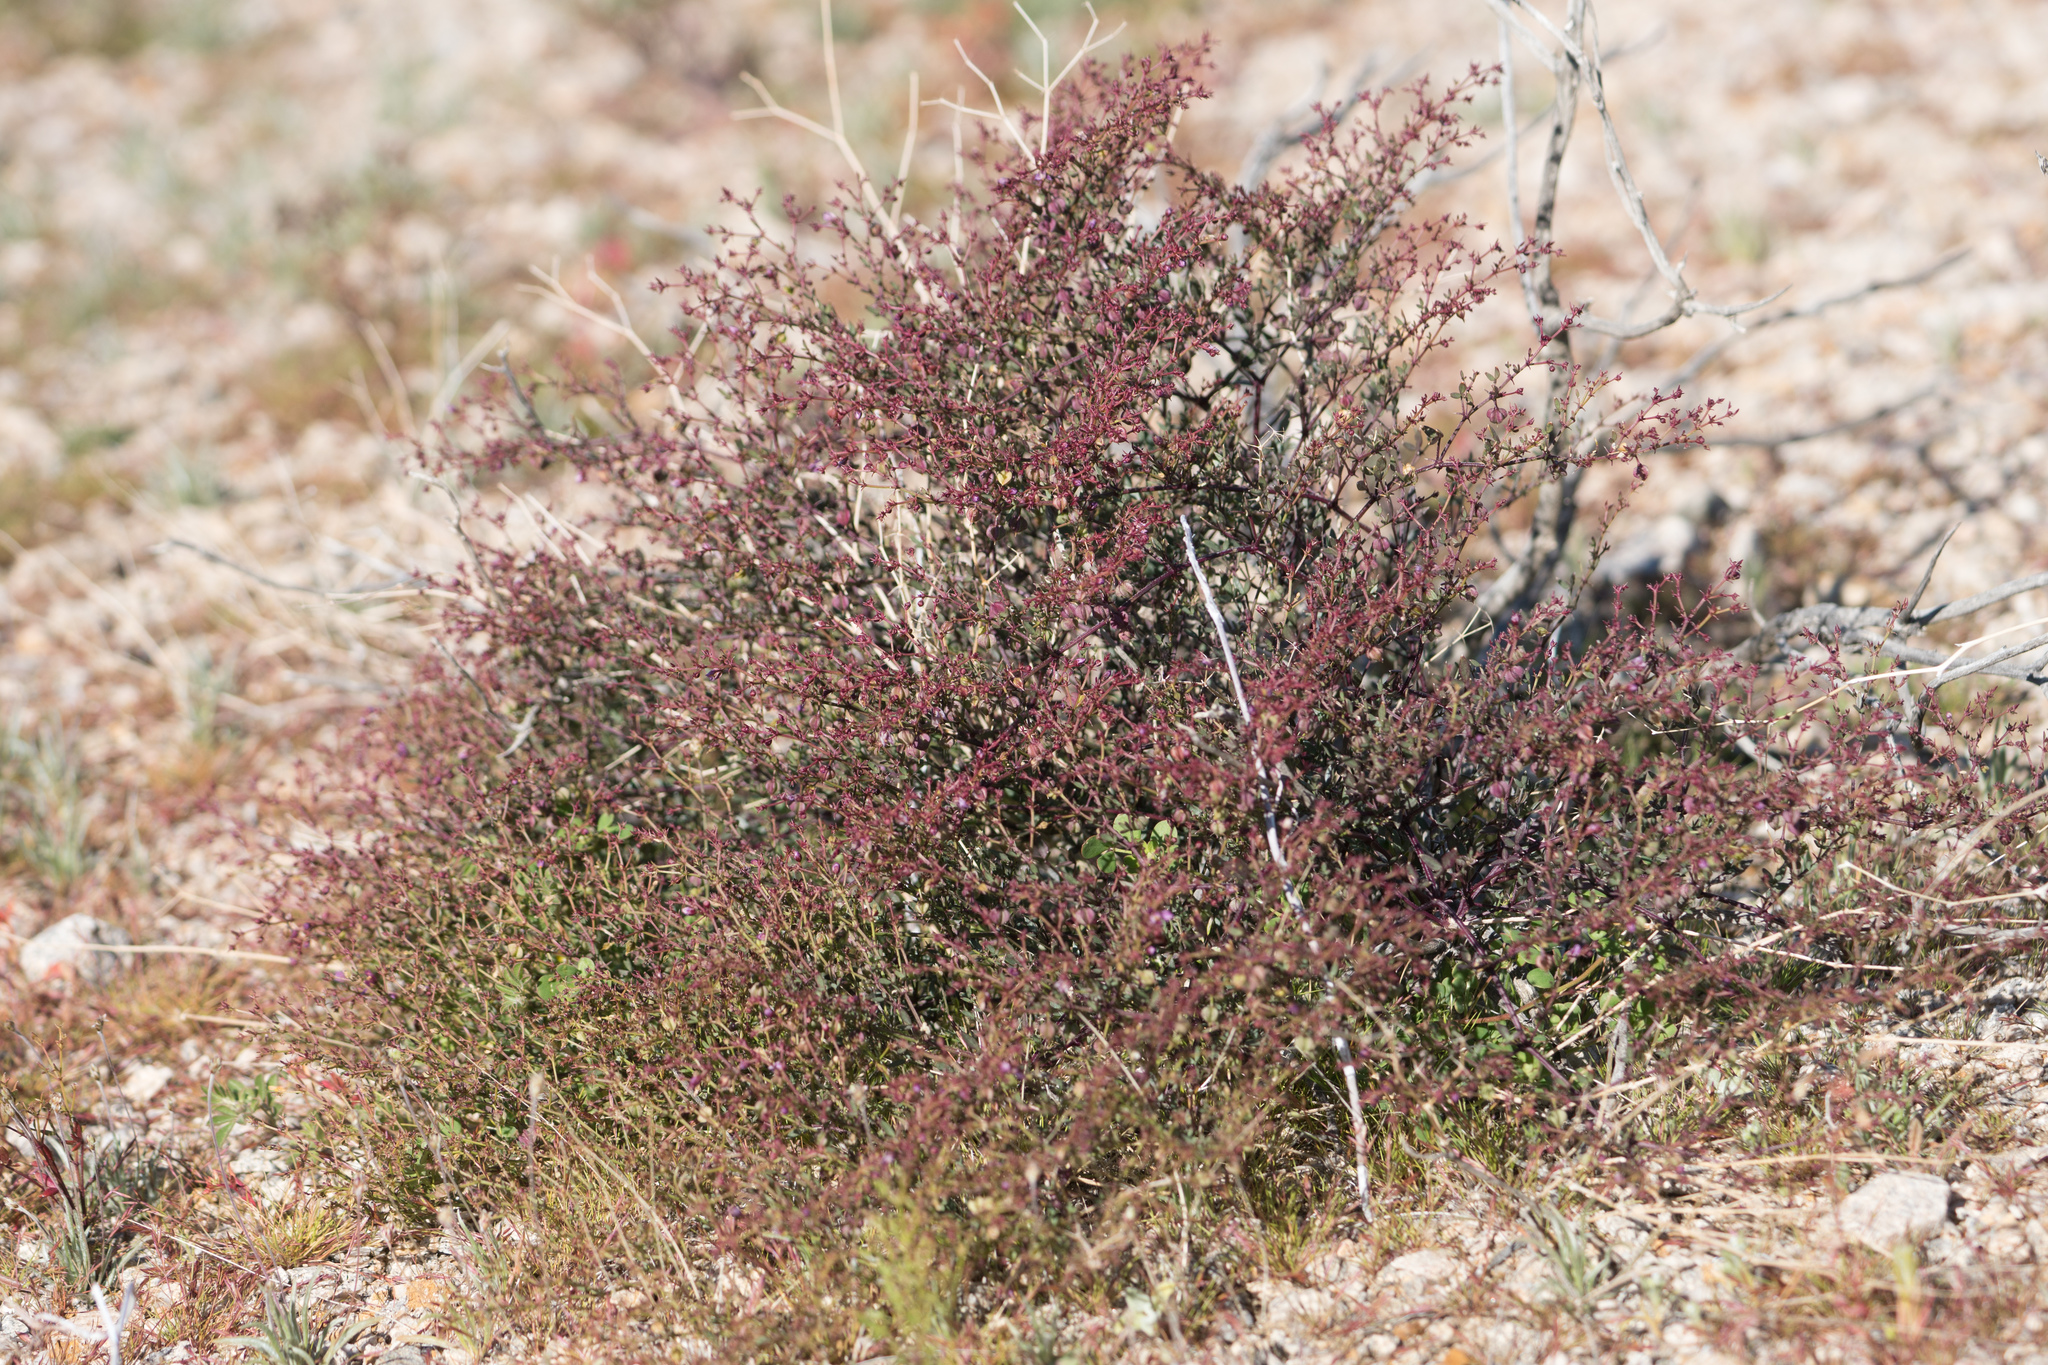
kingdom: Plantae
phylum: Tracheophyta
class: Magnoliopsida
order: Zygophyllales
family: Zygophyllaceae
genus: Fagonia
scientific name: Fagonia laevis
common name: California fagonbush
